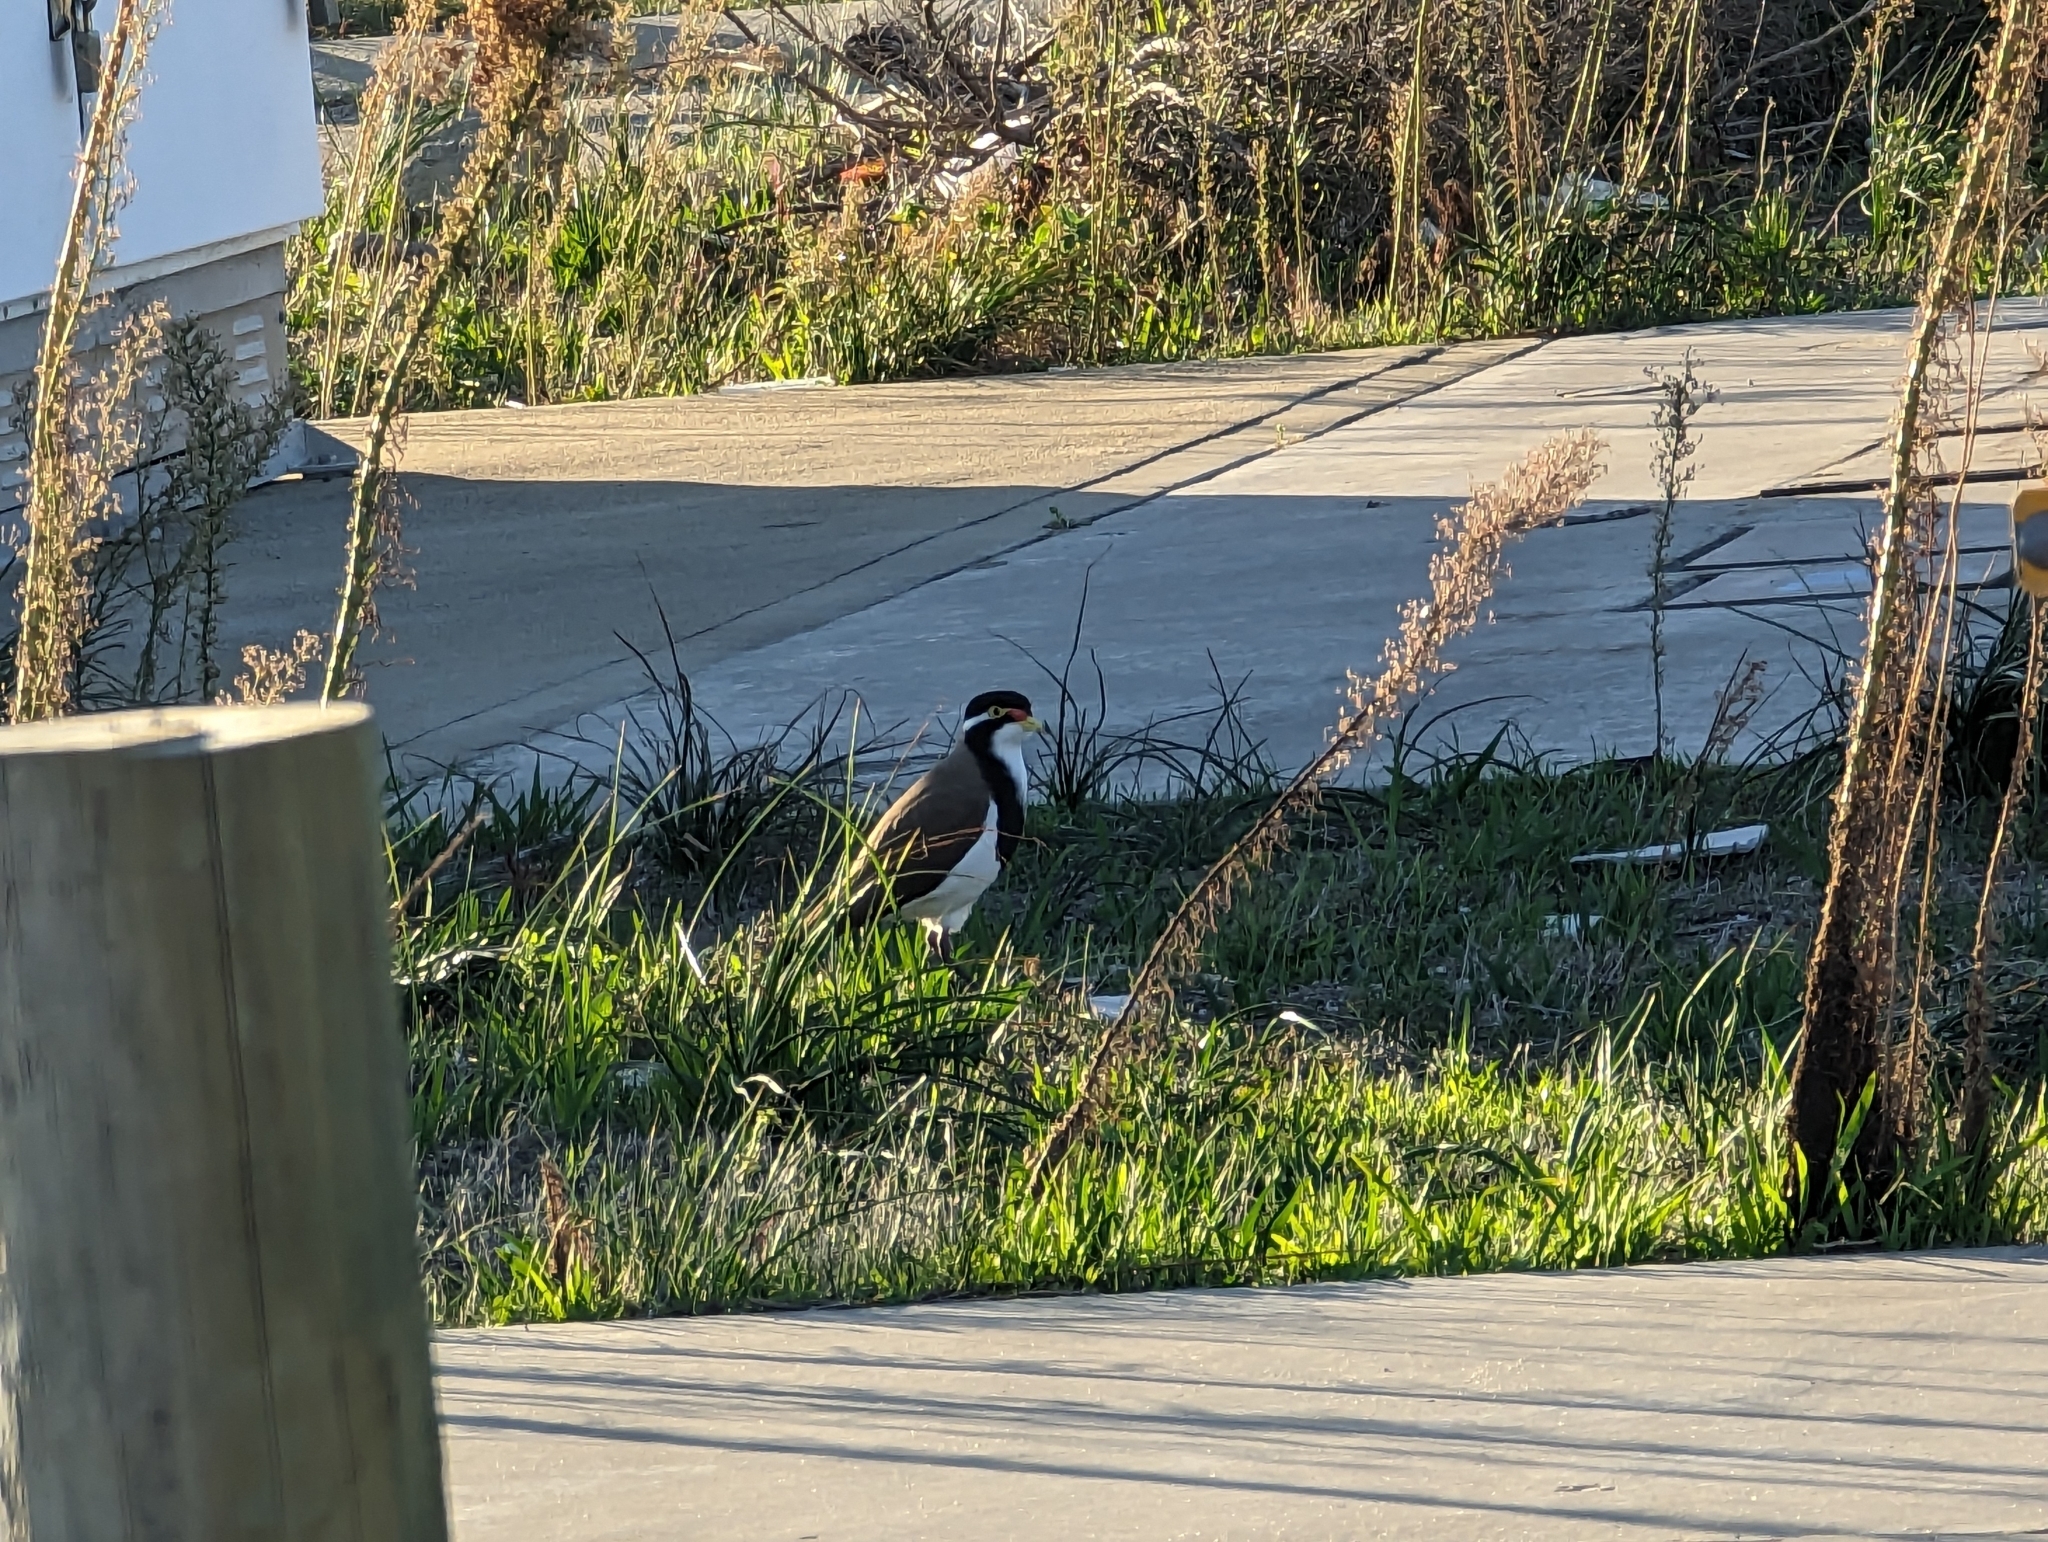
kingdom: Animalia
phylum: Chordata
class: Aves
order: Charadriiformes
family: Charadriidae
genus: Vanellus
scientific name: Vanellus tricolor
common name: Banded lapwing
